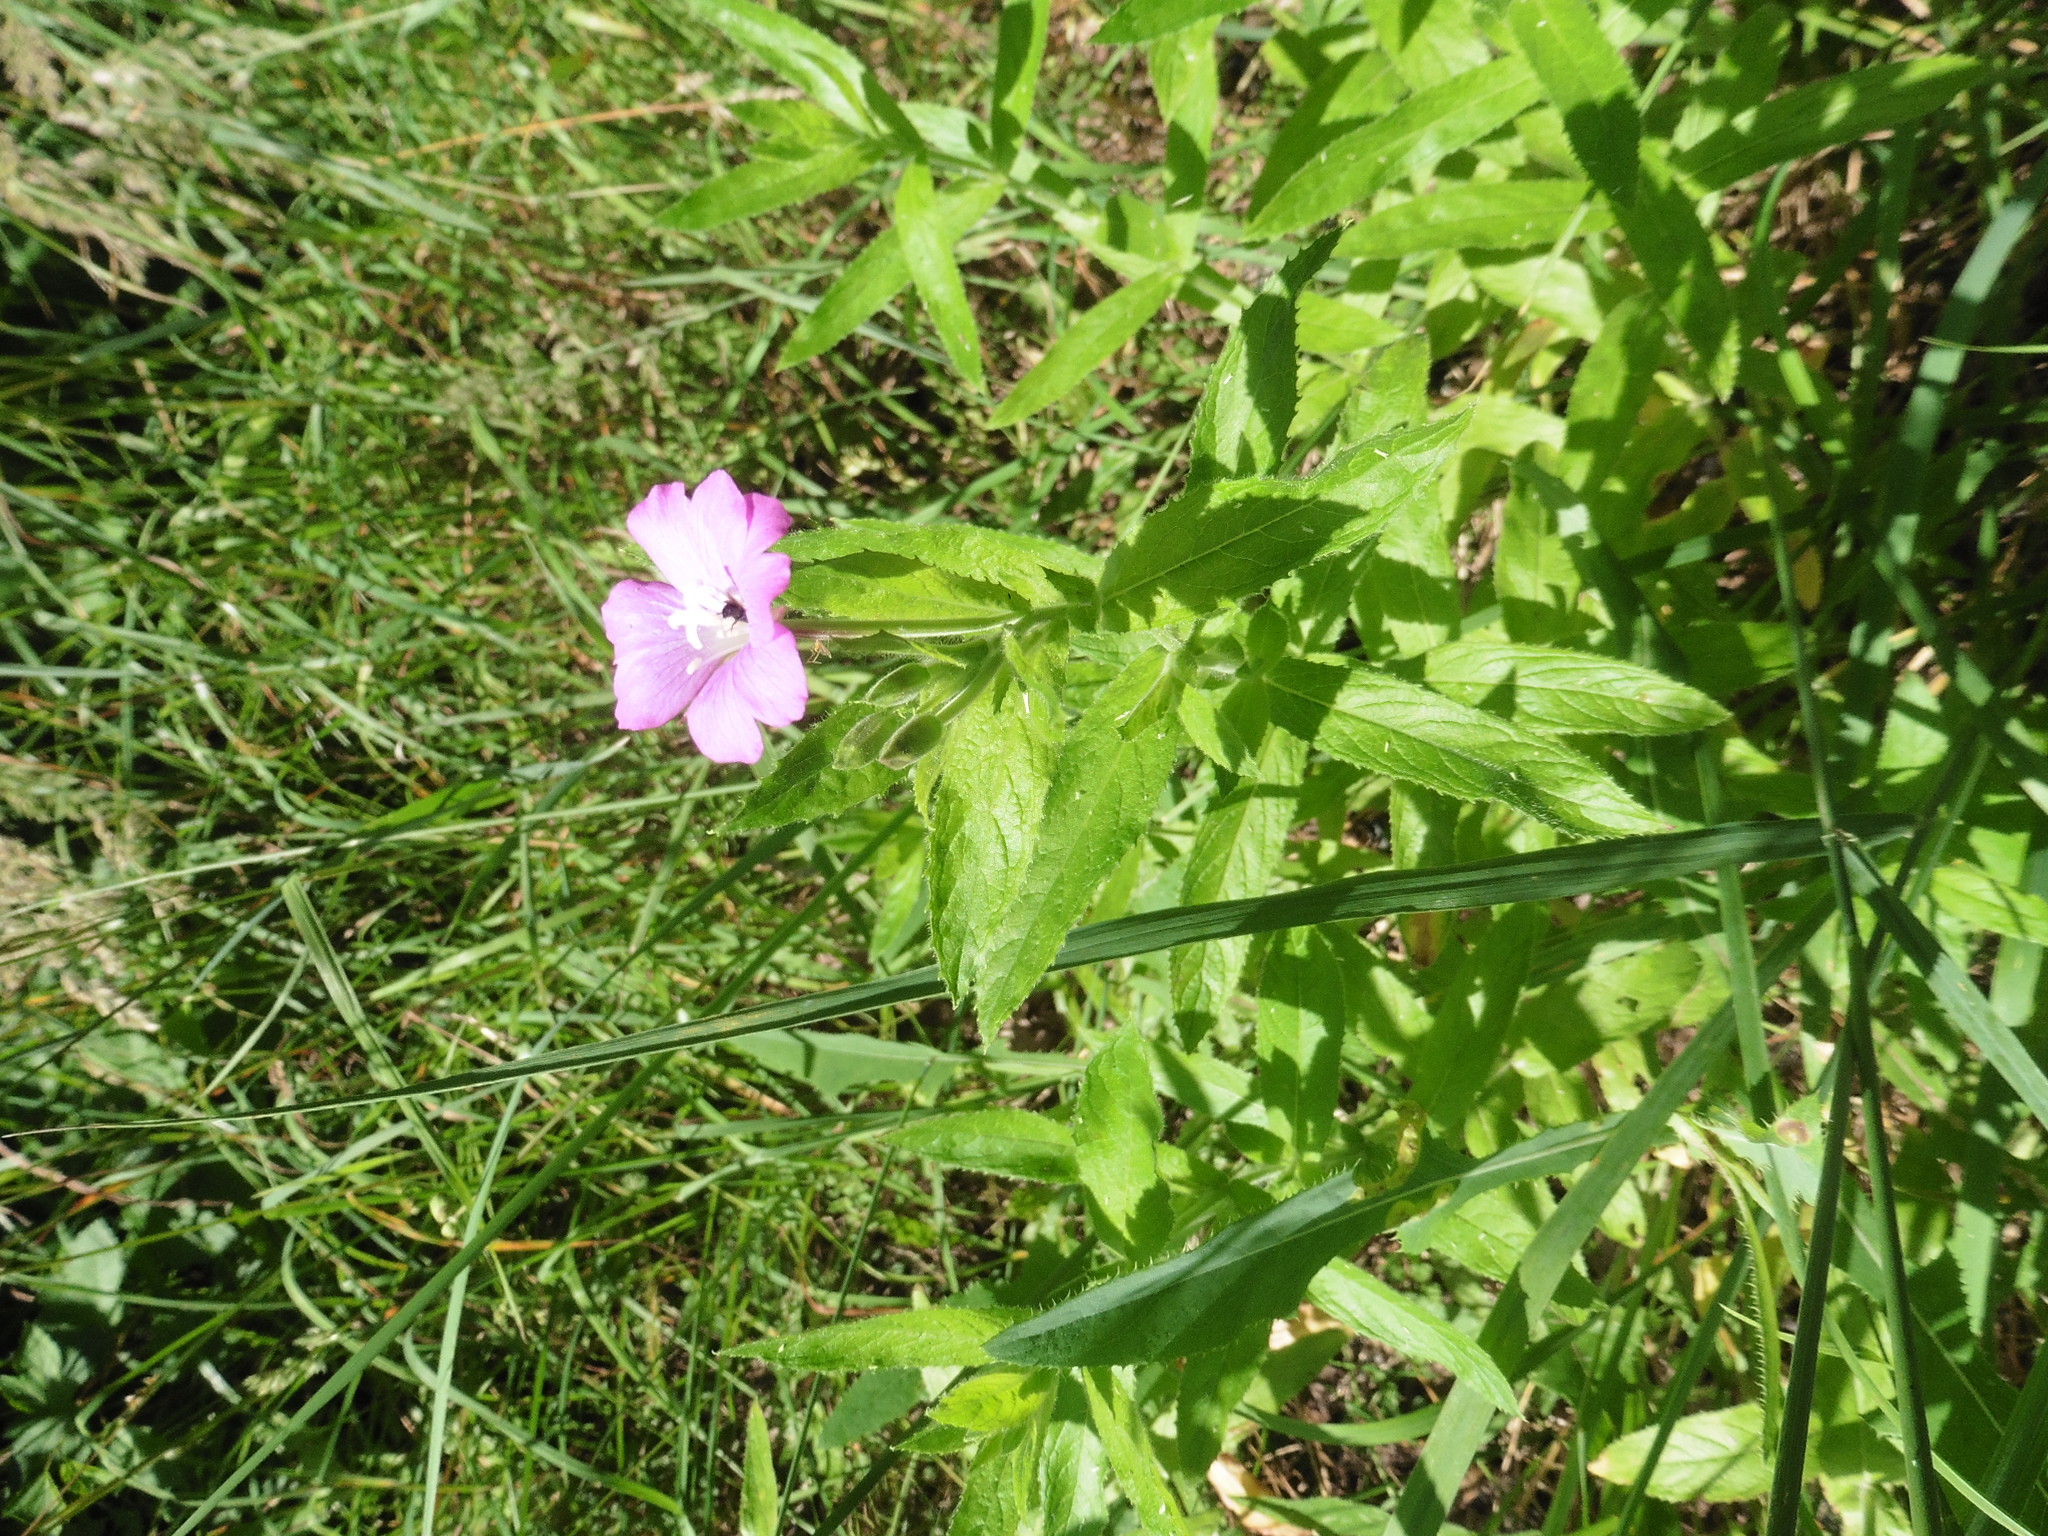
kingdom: Plantae
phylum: Tracheophyta
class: Magnoliopsida
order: Myrtales
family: Onagraceae
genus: Epilobium
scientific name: Epilobium hirsutum
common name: Great willowherb
